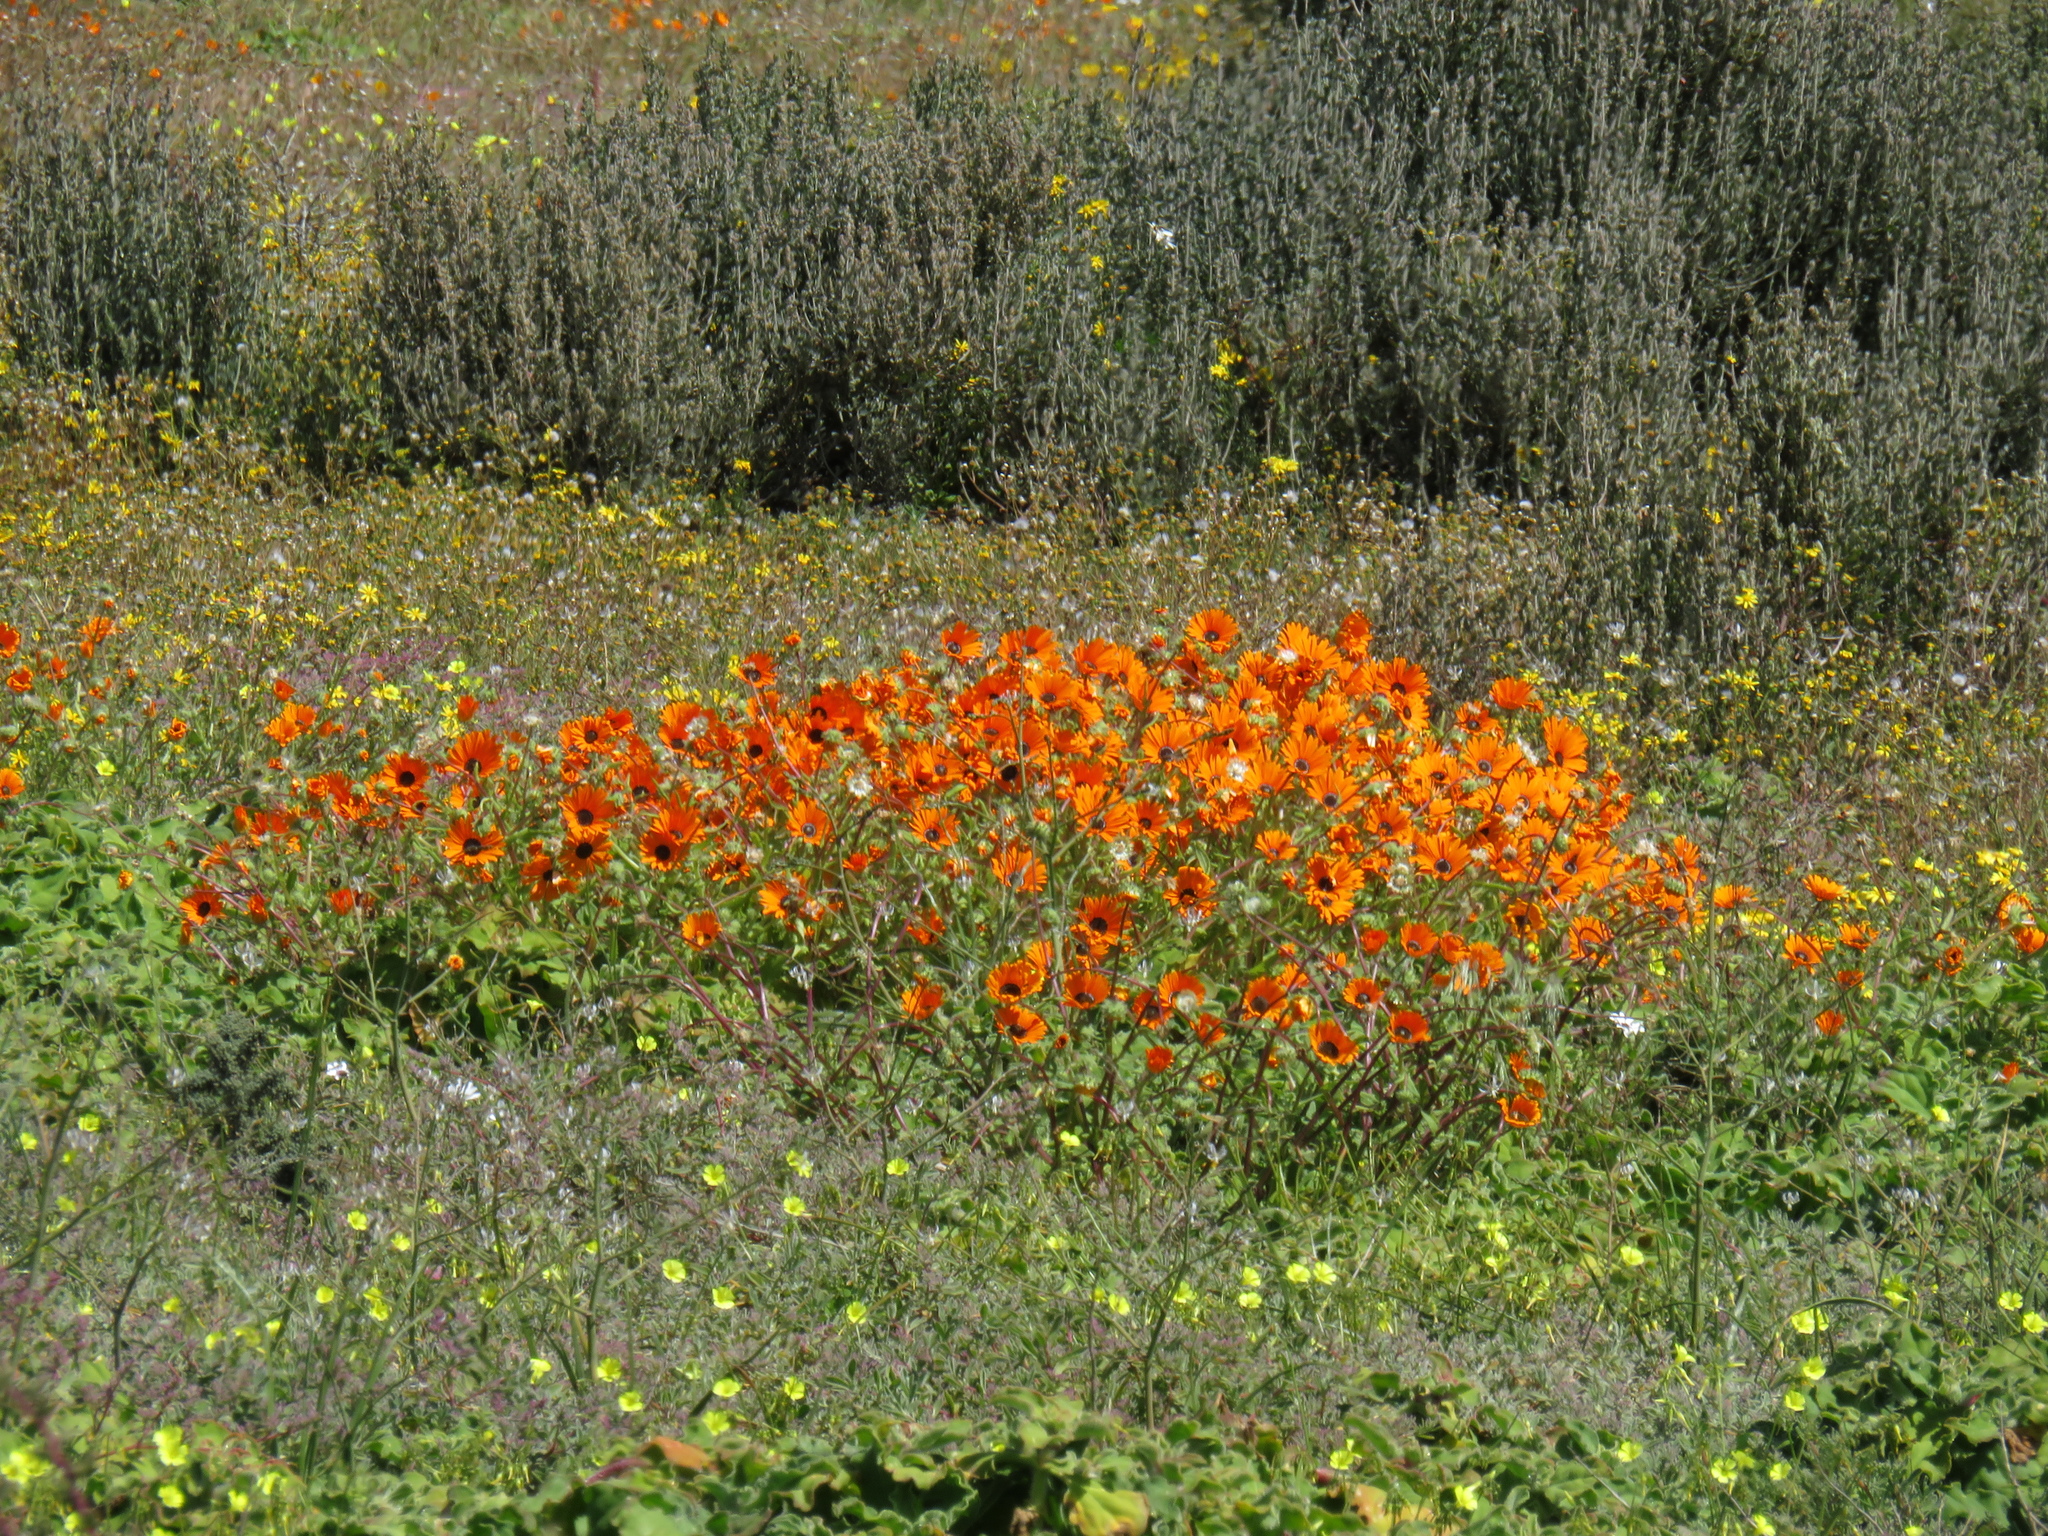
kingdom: Plantae
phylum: Tracheophyta
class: Magnoliopsida
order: Asterales
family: Asteraceae
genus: Arctotis
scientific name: Arctotis hirsuta
